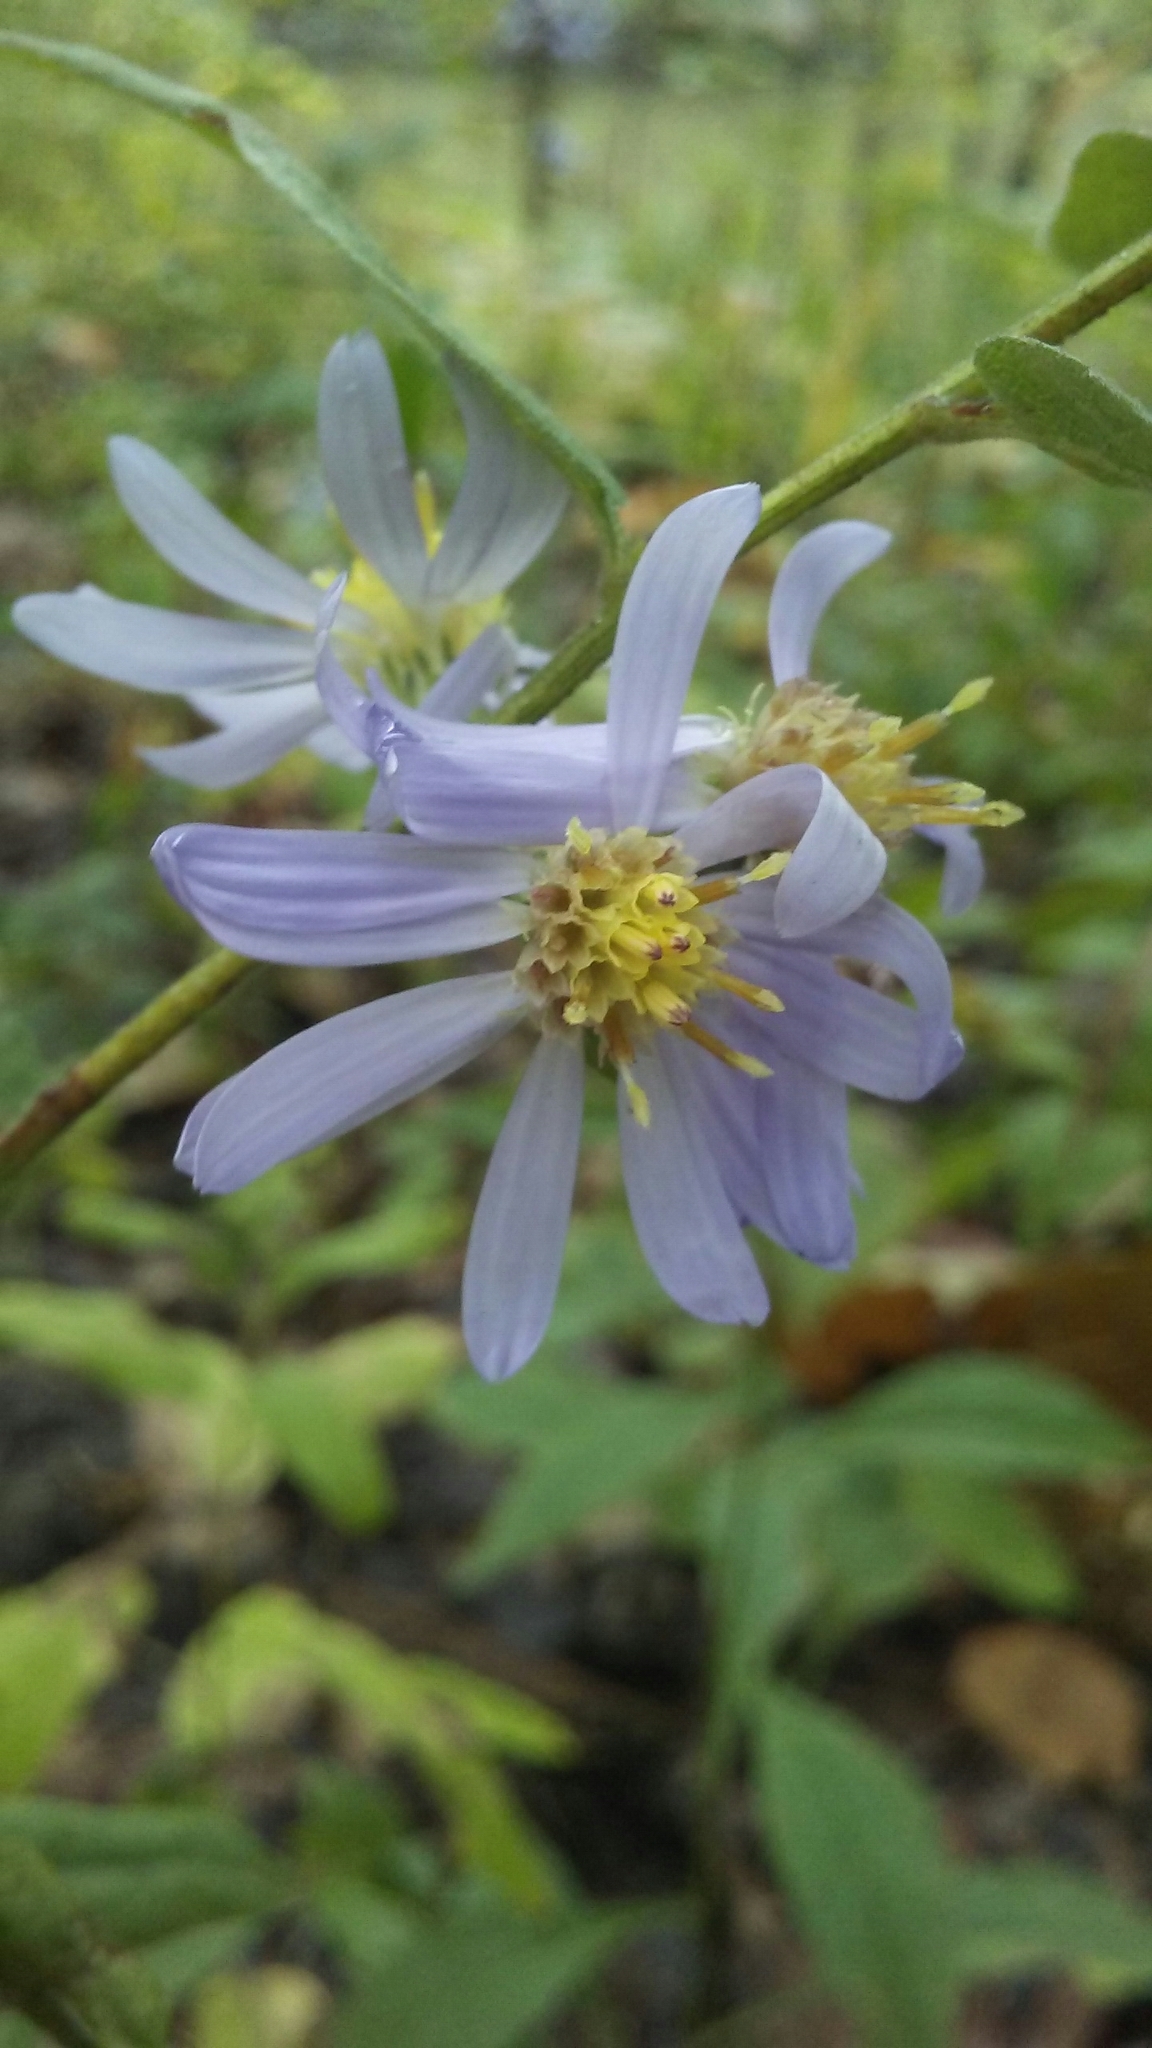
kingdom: Plantae
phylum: Tracheophyta
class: Magnoliopsida
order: Asterales
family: Asteraceae
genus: Symphyotrichum
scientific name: Symphyotrichum shortii
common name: Short's aster
